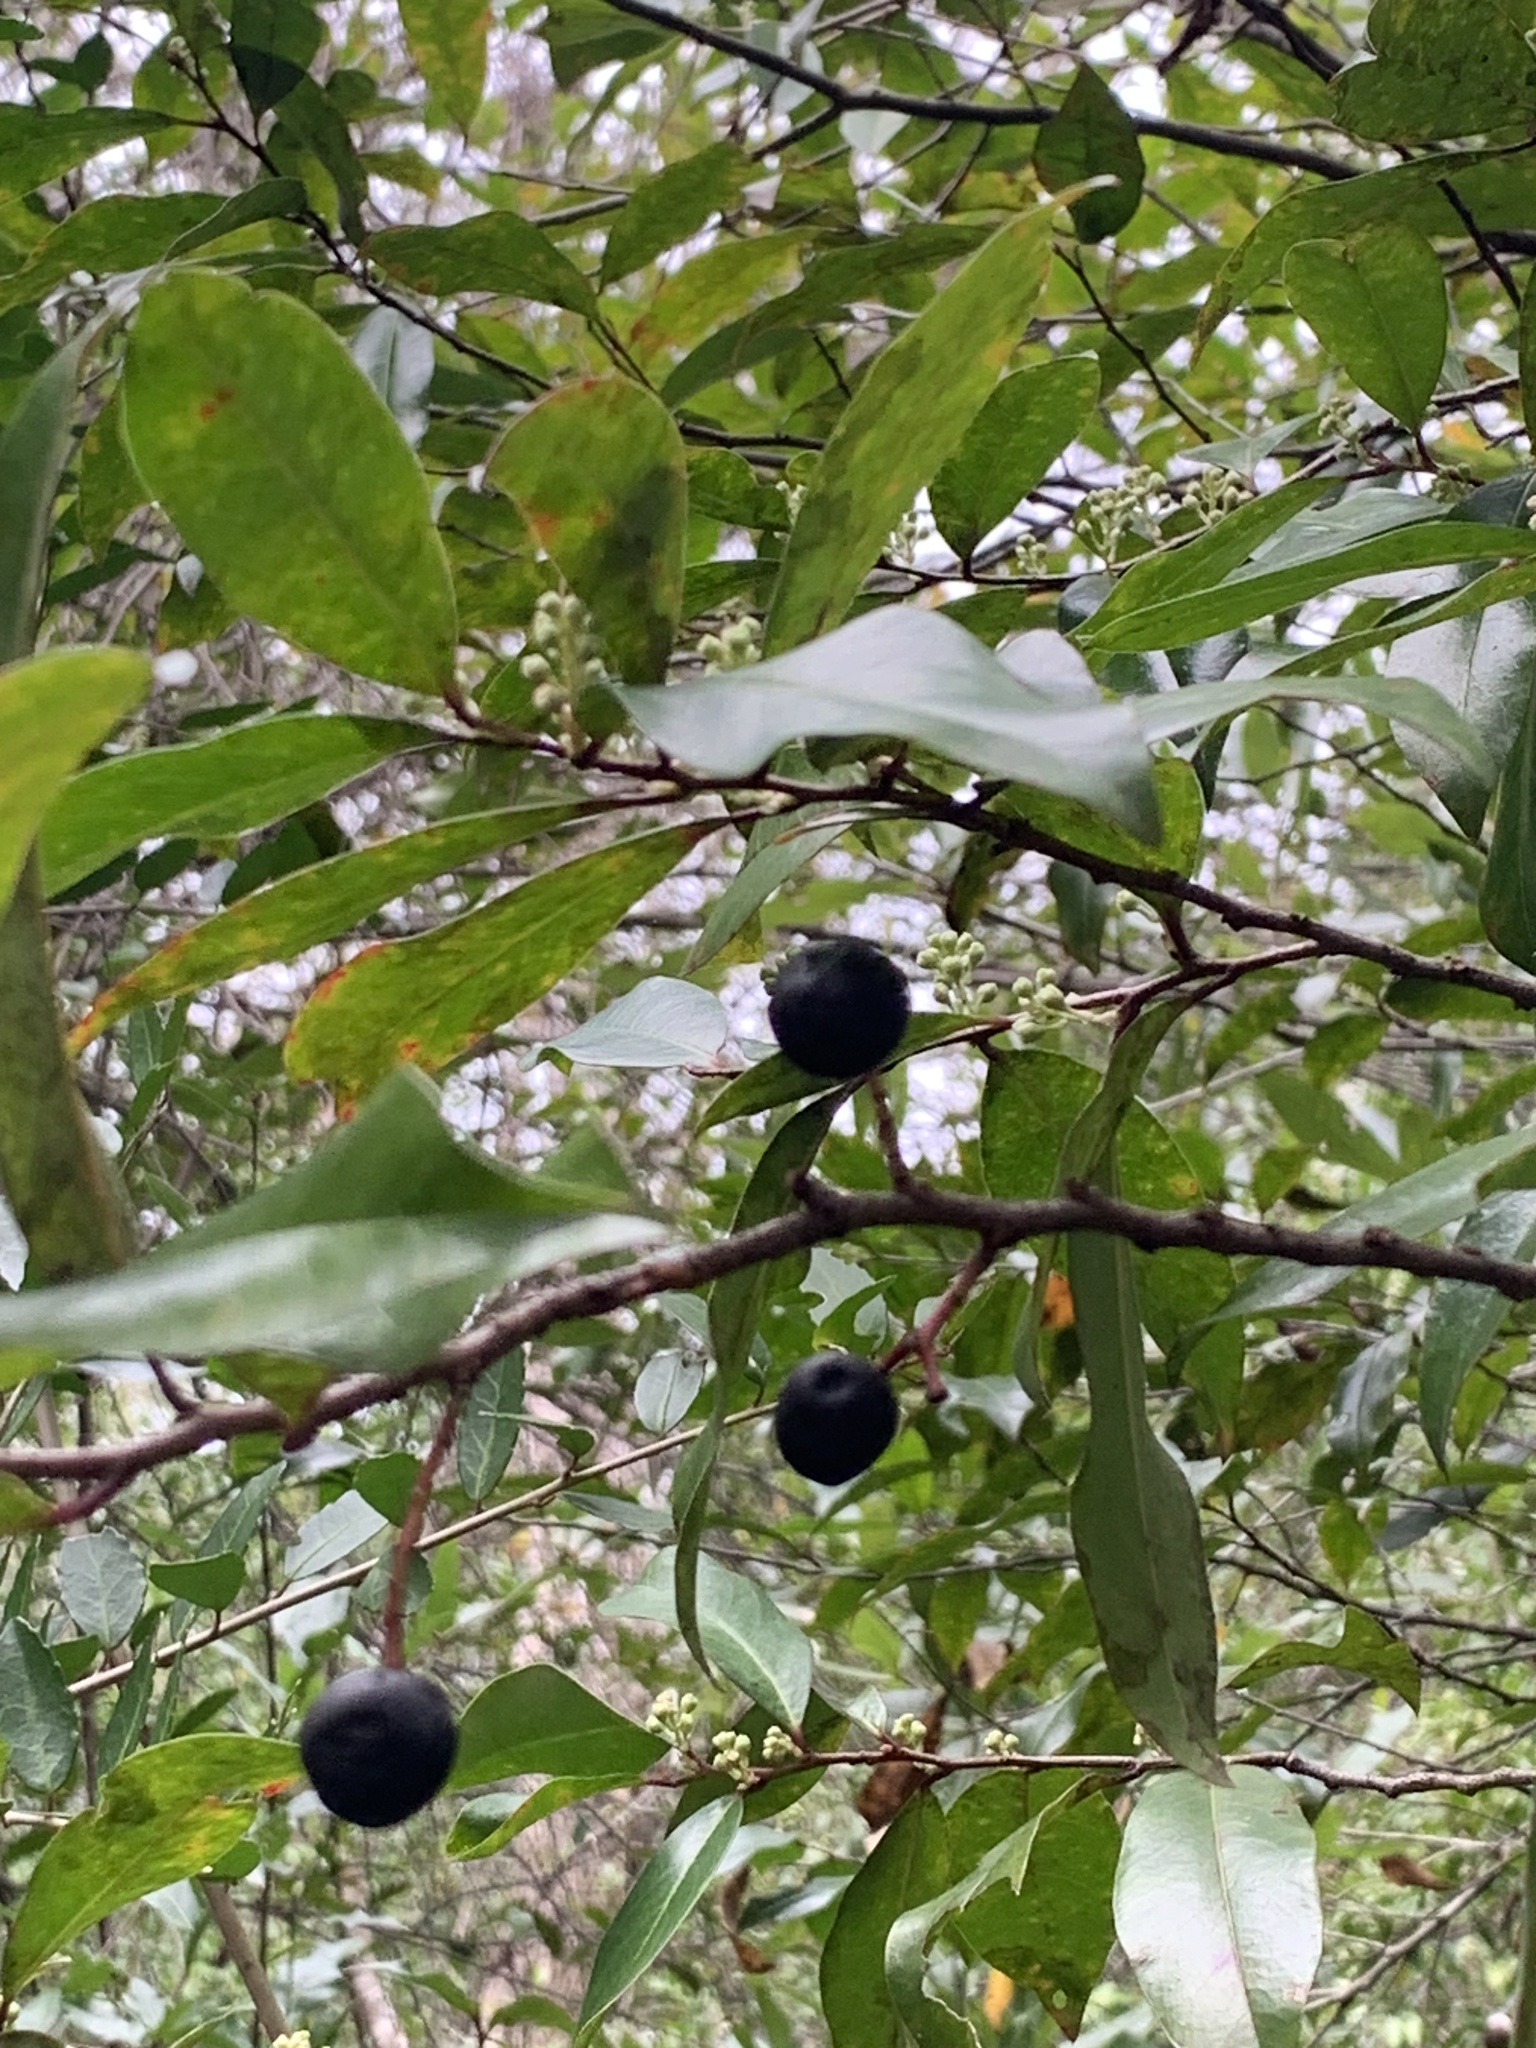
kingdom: Plantae
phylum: Tracheophyta
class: Magnoliopsida
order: Rosales
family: Rosaceae
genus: Prunus
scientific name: Prunus caroliniana
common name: Carolina laurel cherry
